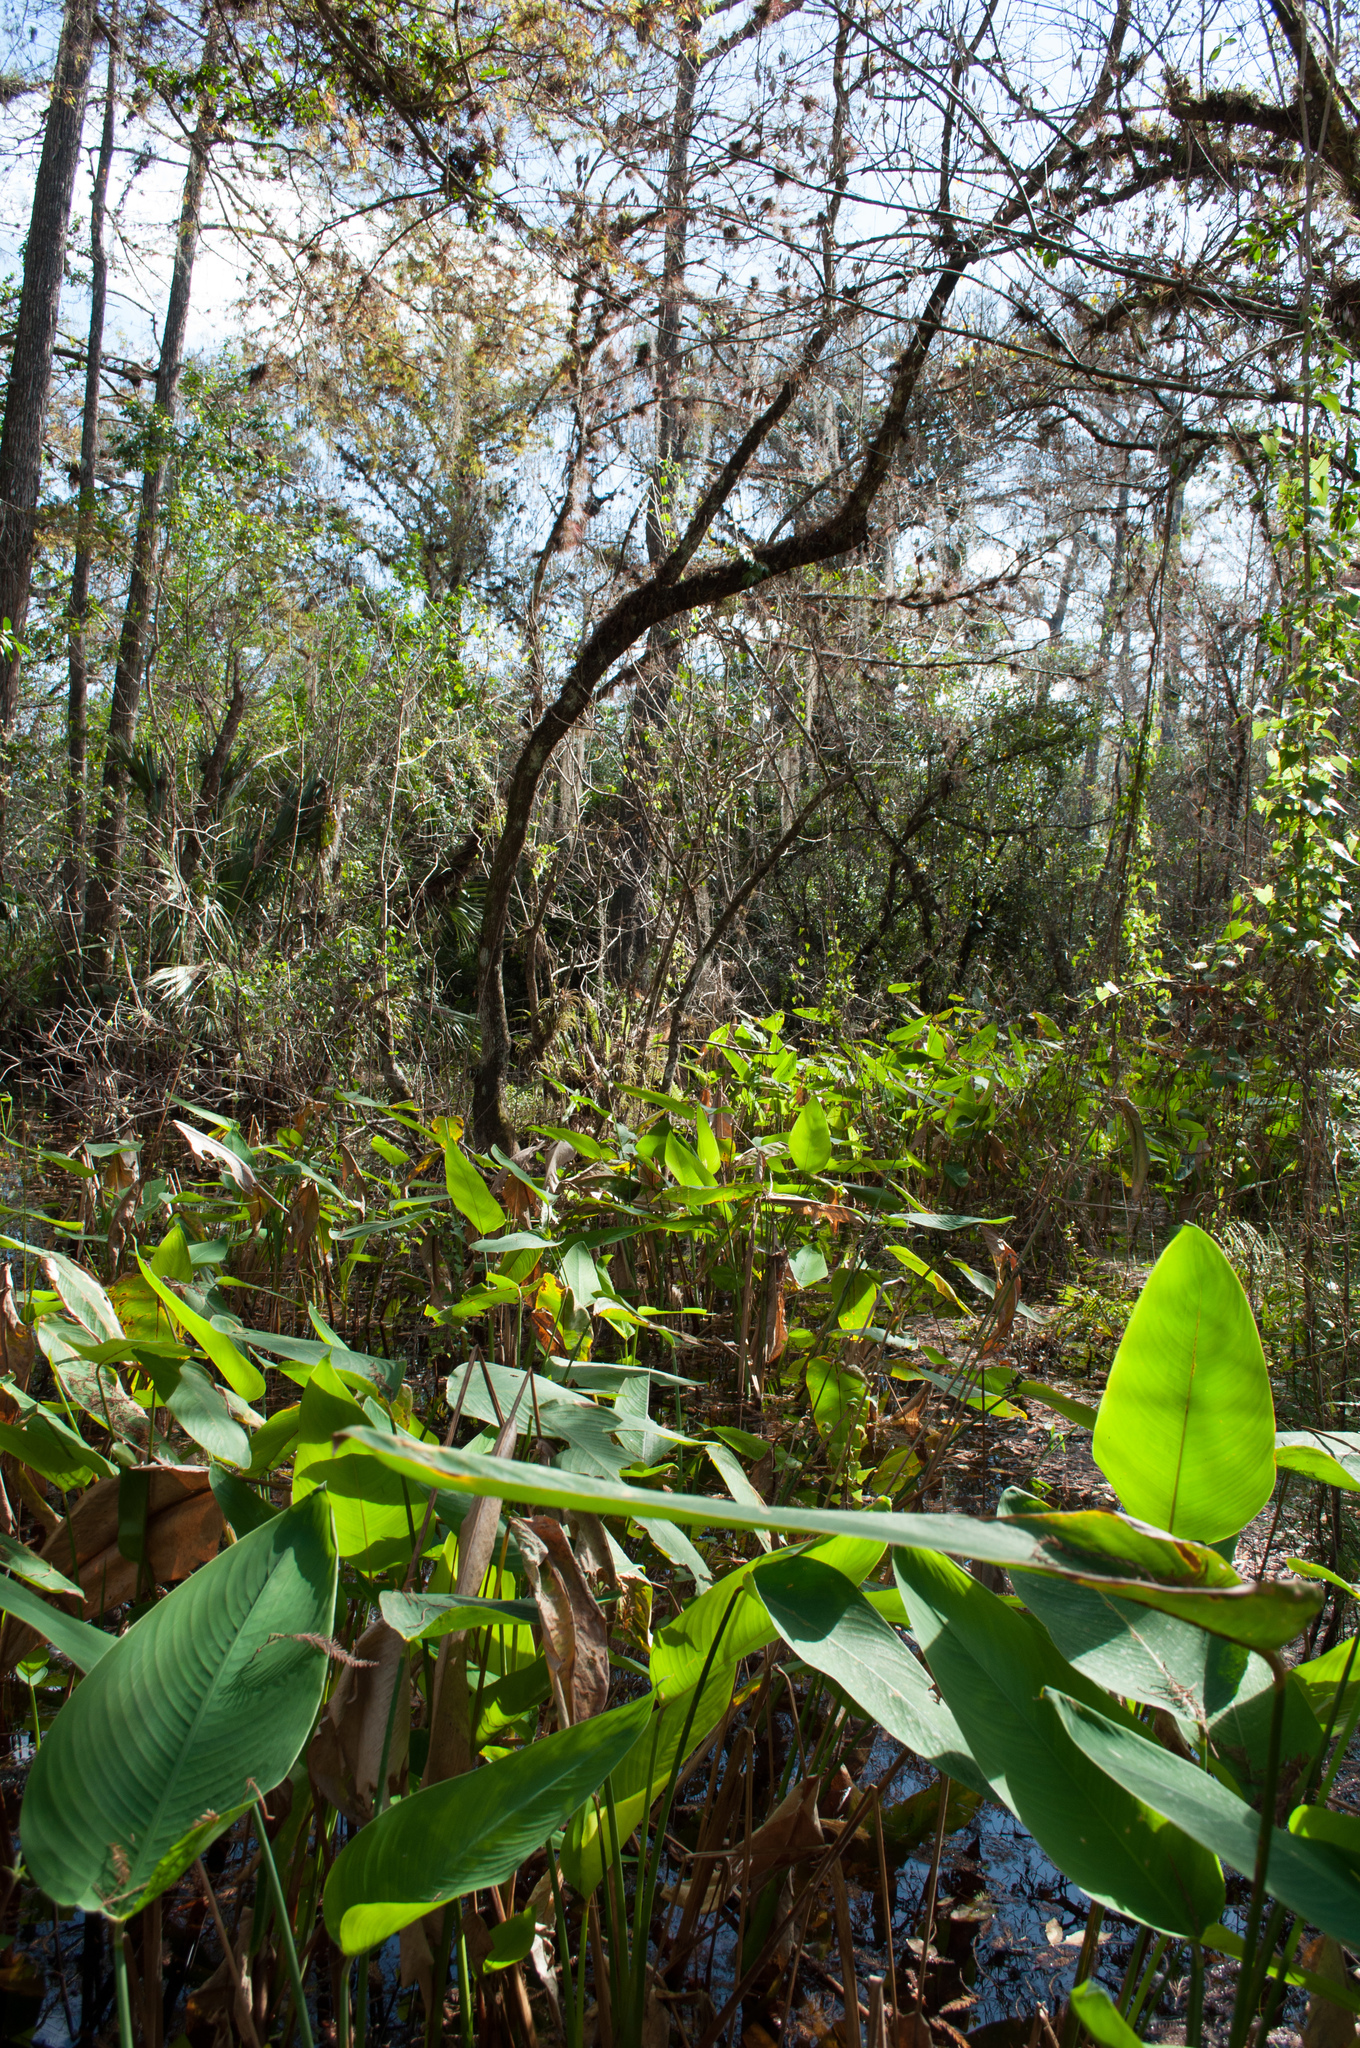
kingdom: Plantae
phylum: Tracheophyta
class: Liliopsida
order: Zingiberales
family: Marantaceae
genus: Thalia
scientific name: Thalia geniculata
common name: Arrowroot
